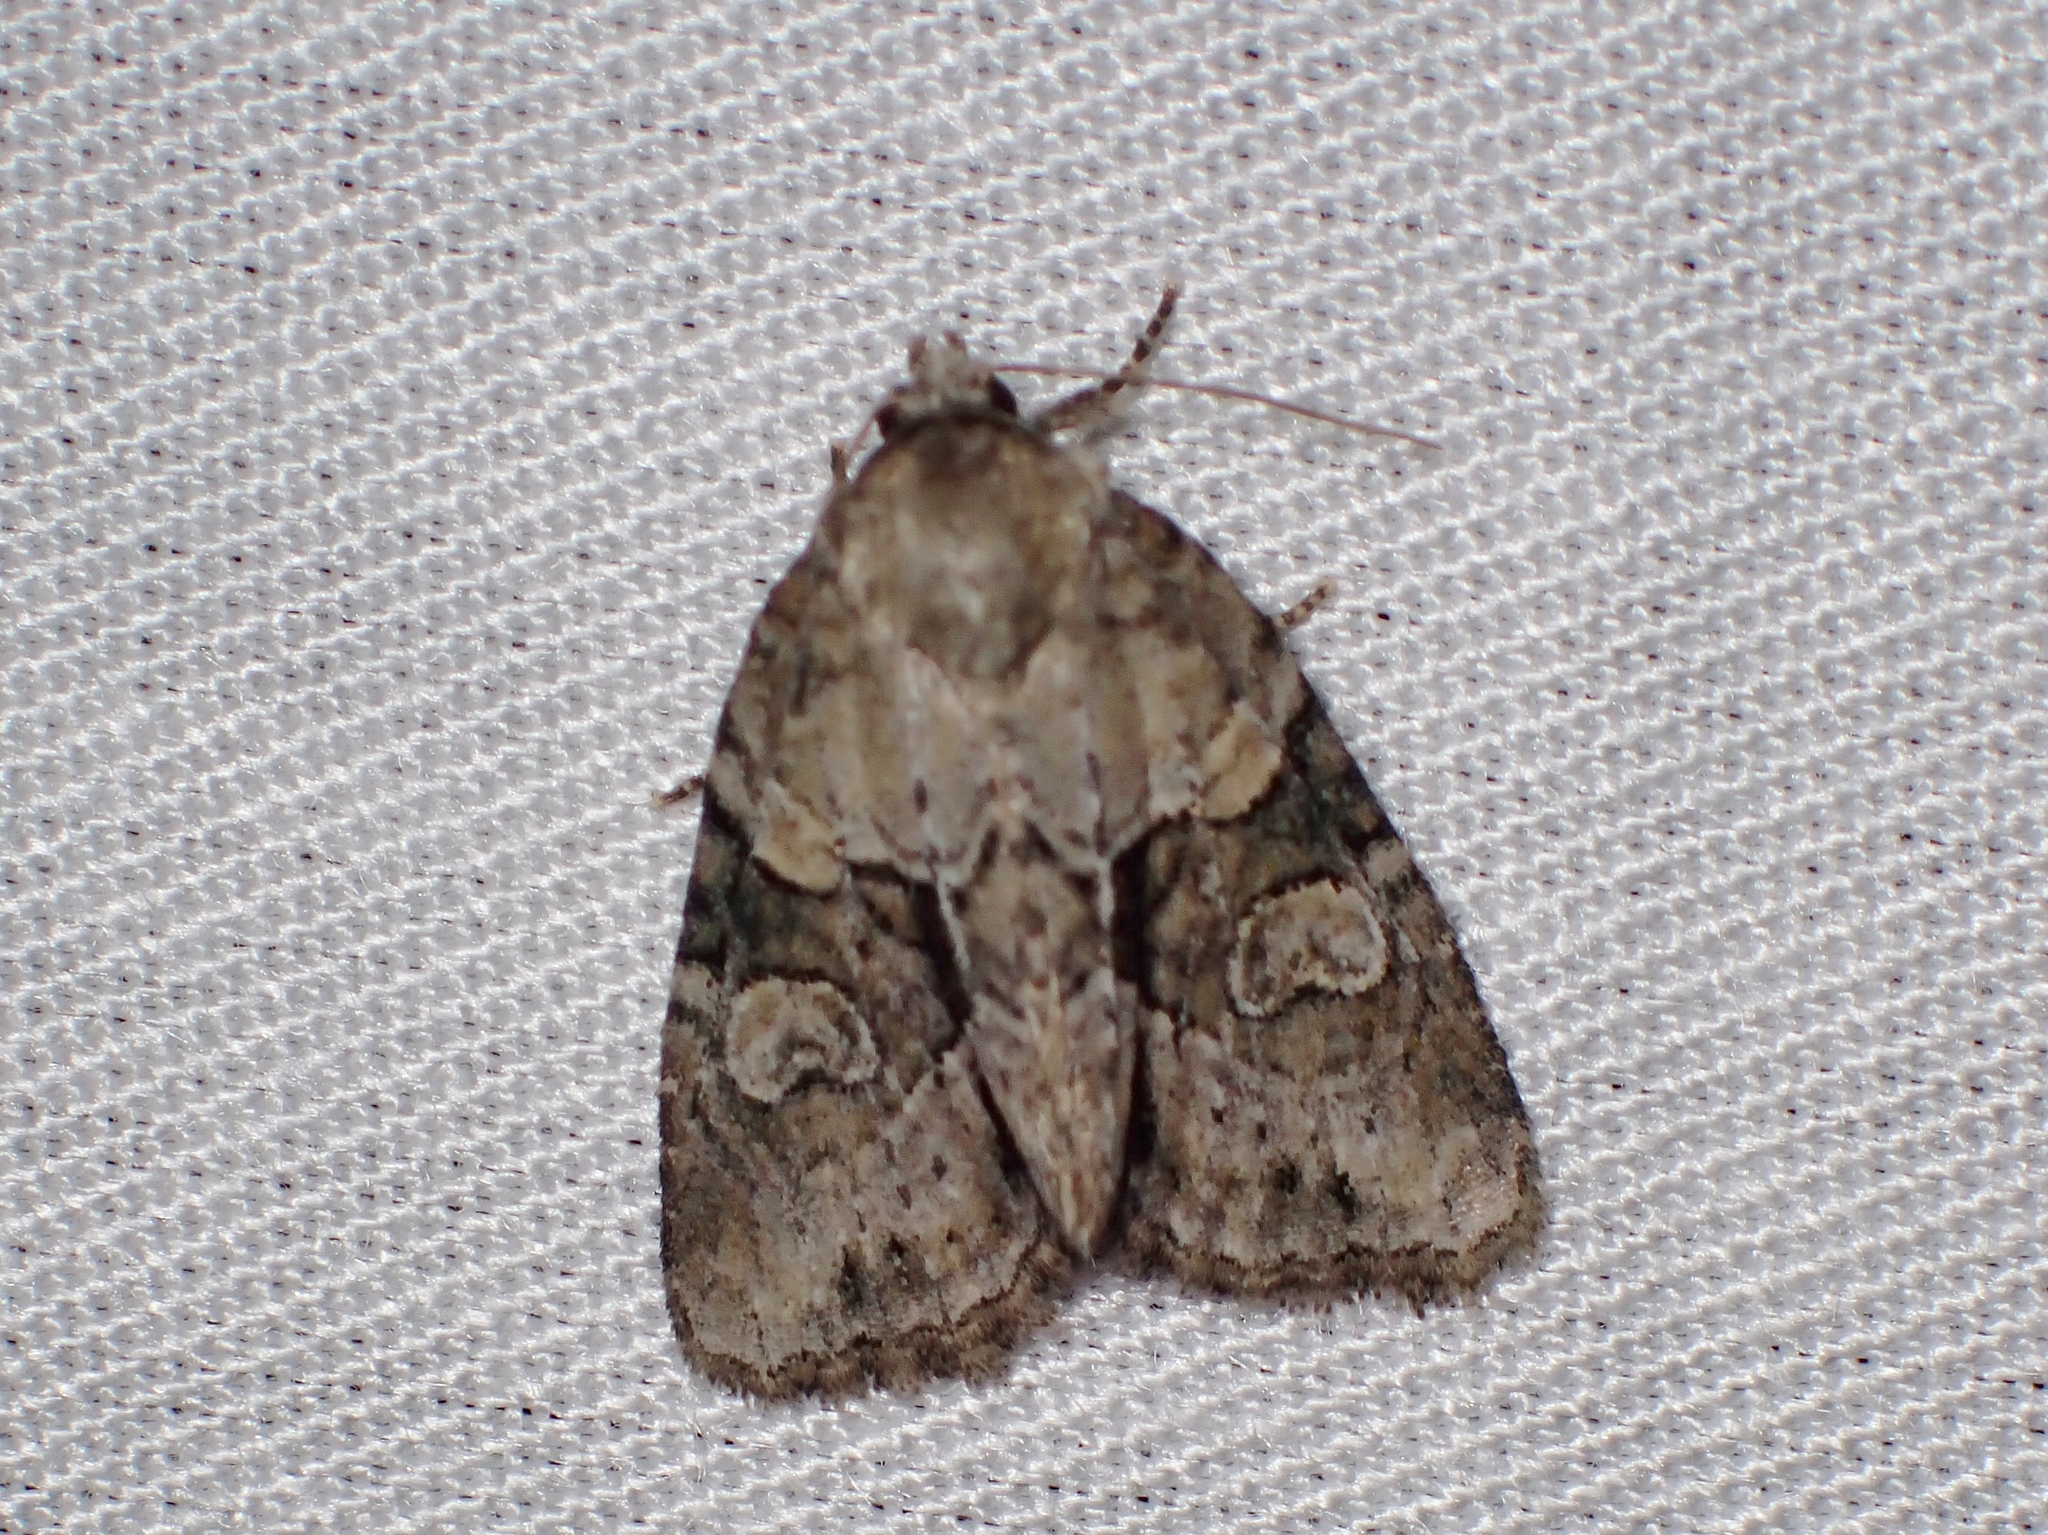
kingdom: Animalia
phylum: Arthropoda
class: Insecta
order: Lepidoptera
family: Noctuidae
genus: Neoligia
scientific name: Neoligia exhausta
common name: Exhausted brocade
